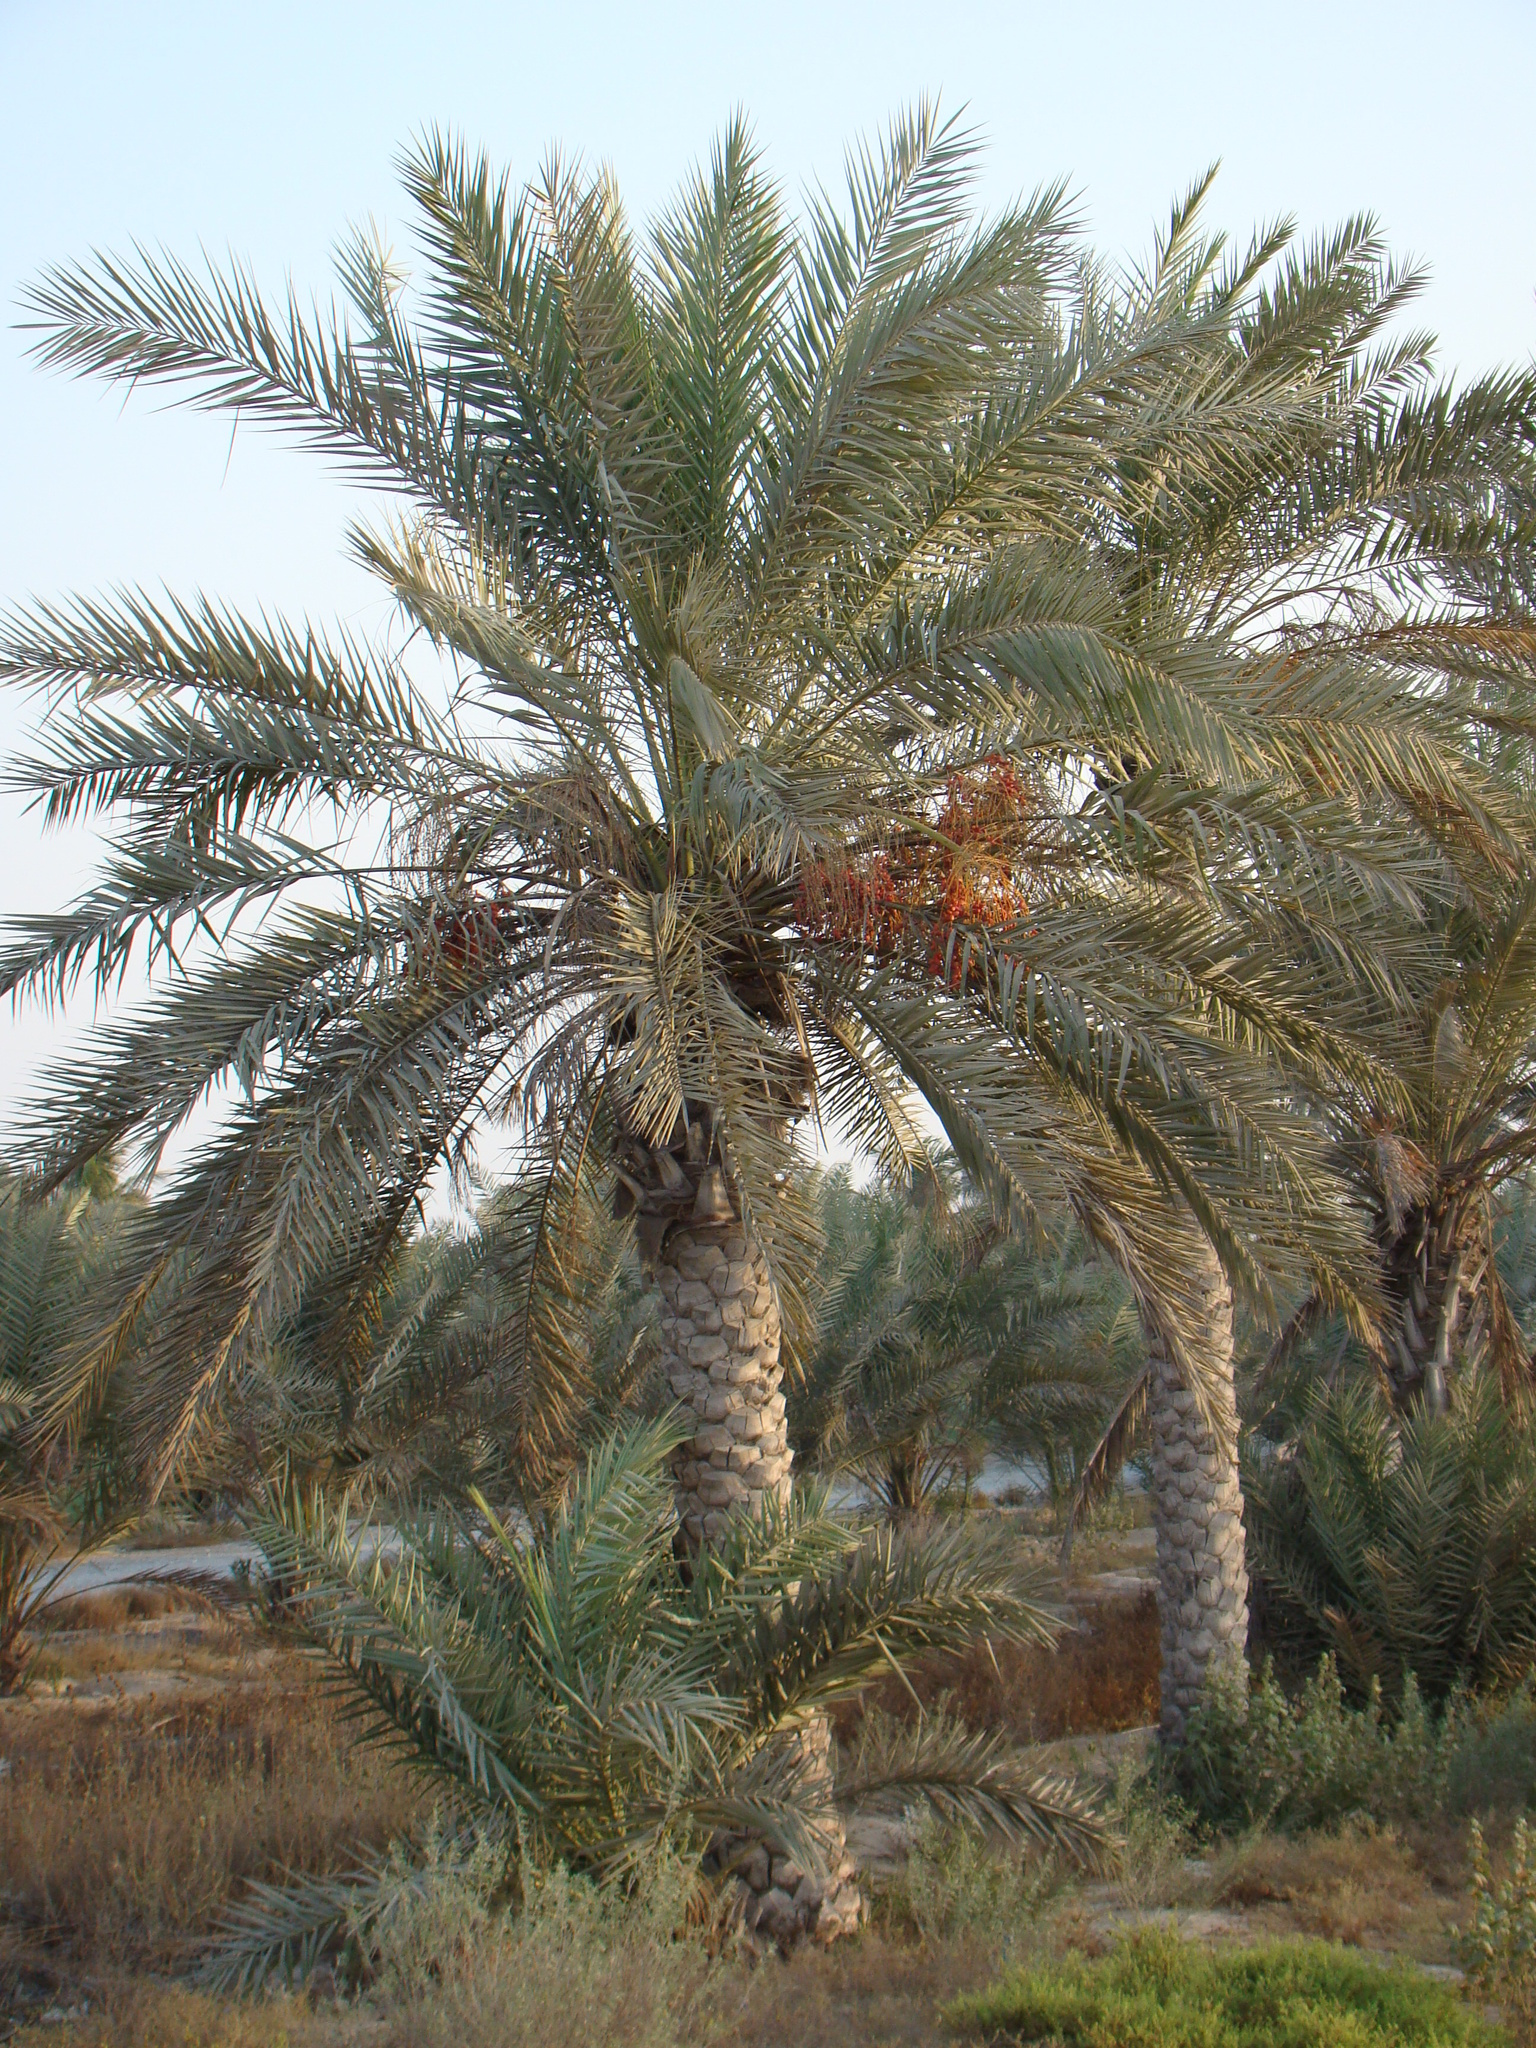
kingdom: Plantae
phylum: Tracheophyta
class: Liliopsida
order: Arecales
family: Arecaceae
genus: Phoenix
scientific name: Phoenix dactylifera
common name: Date palm
